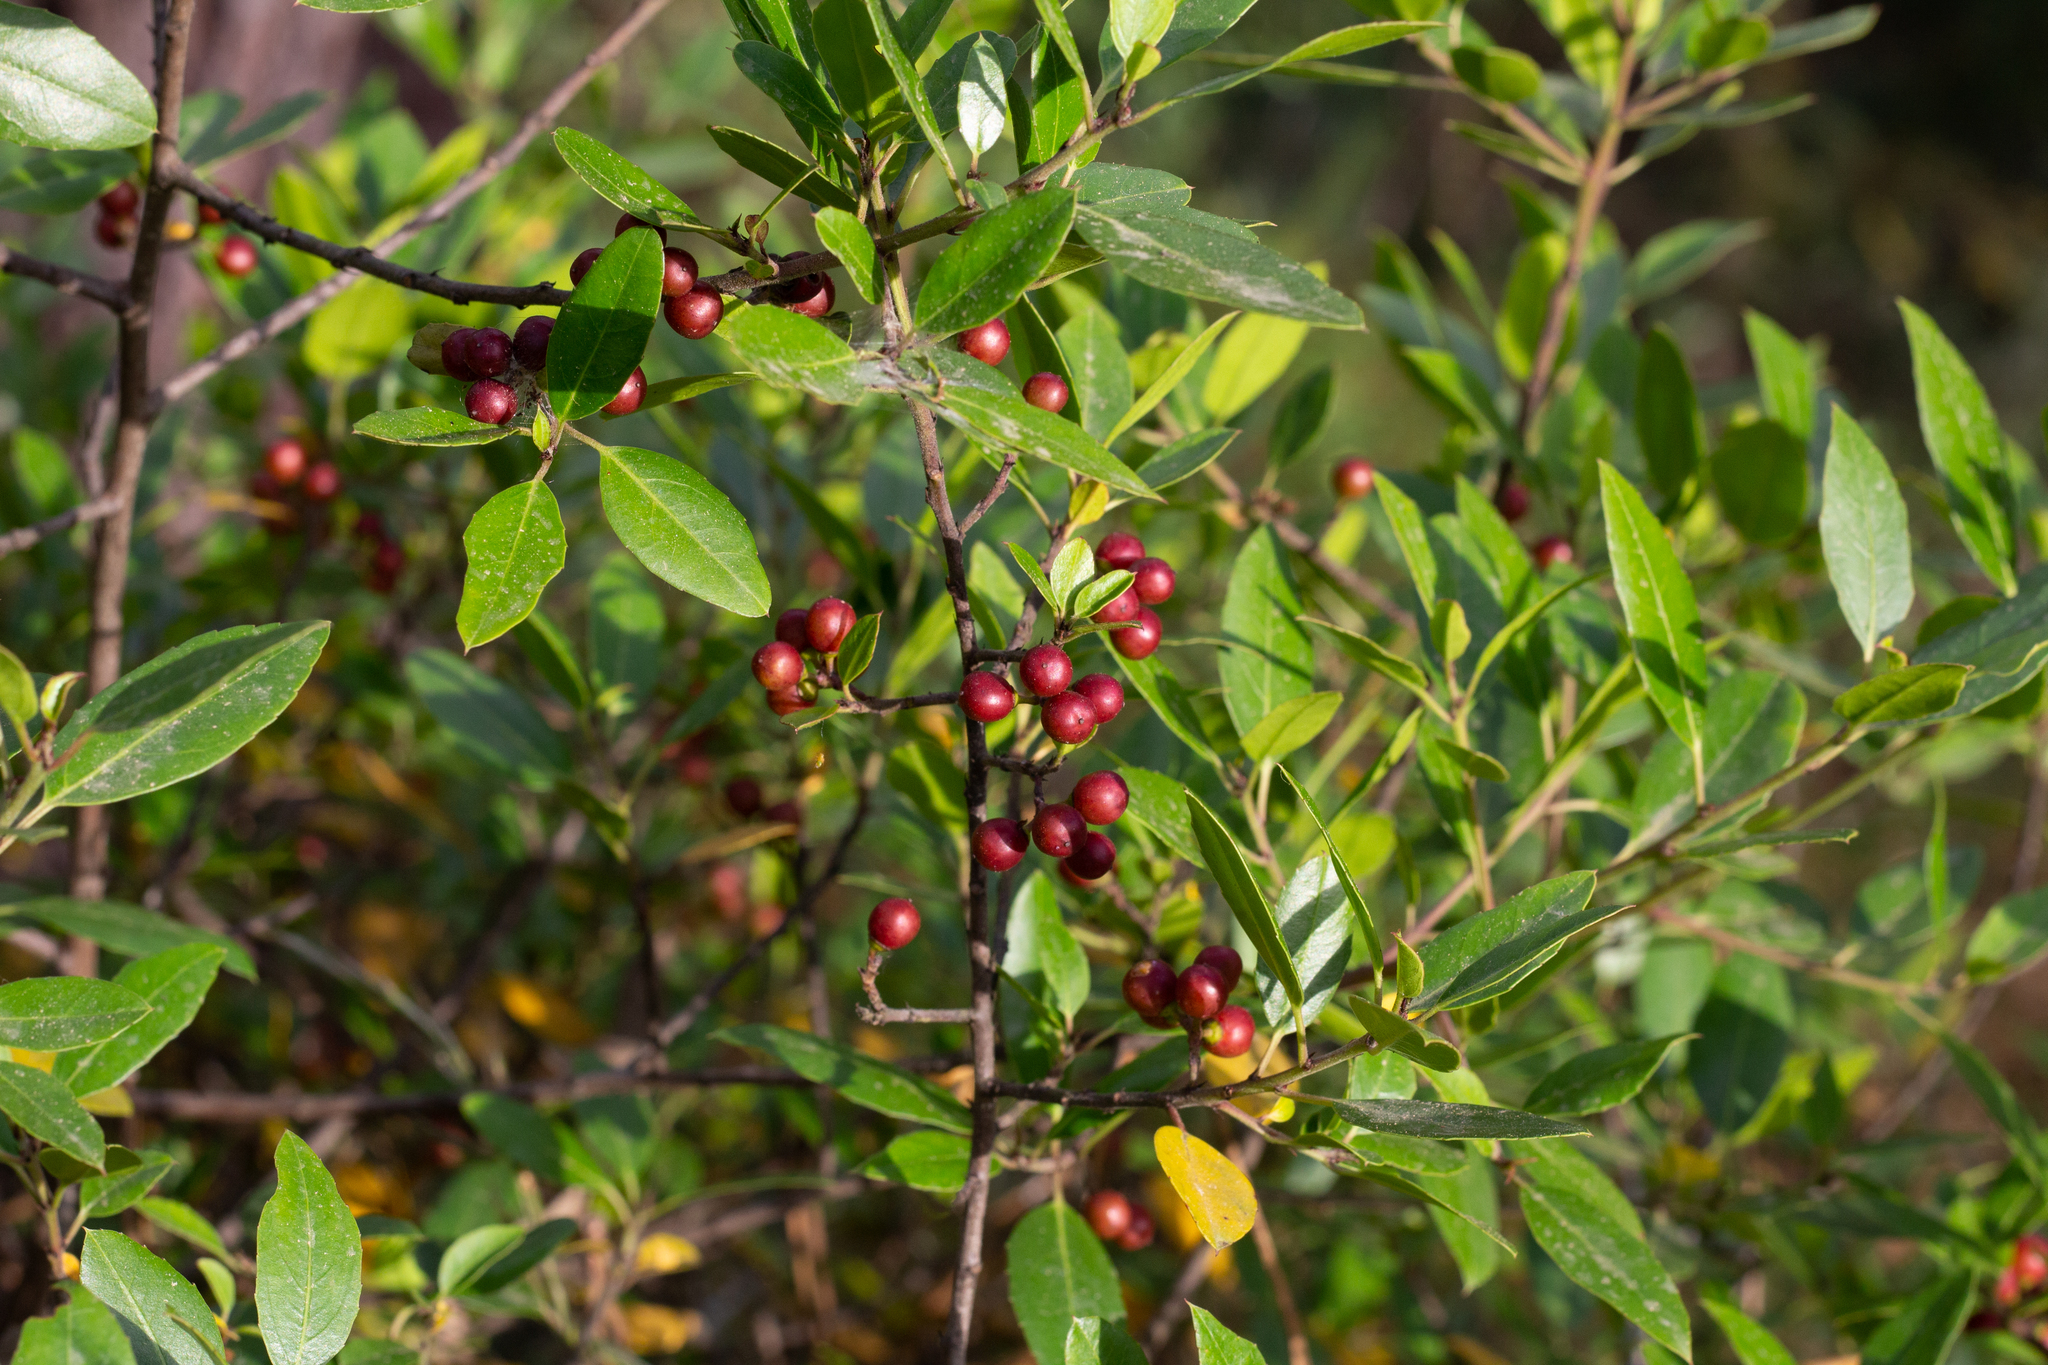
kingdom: Plantae
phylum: Tracheophyta
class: Magnoliopsida
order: Rosales
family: Rhamnaceae
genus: Rhamnus
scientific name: Rhamnus alaternus
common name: Mediterranean buckthorn
